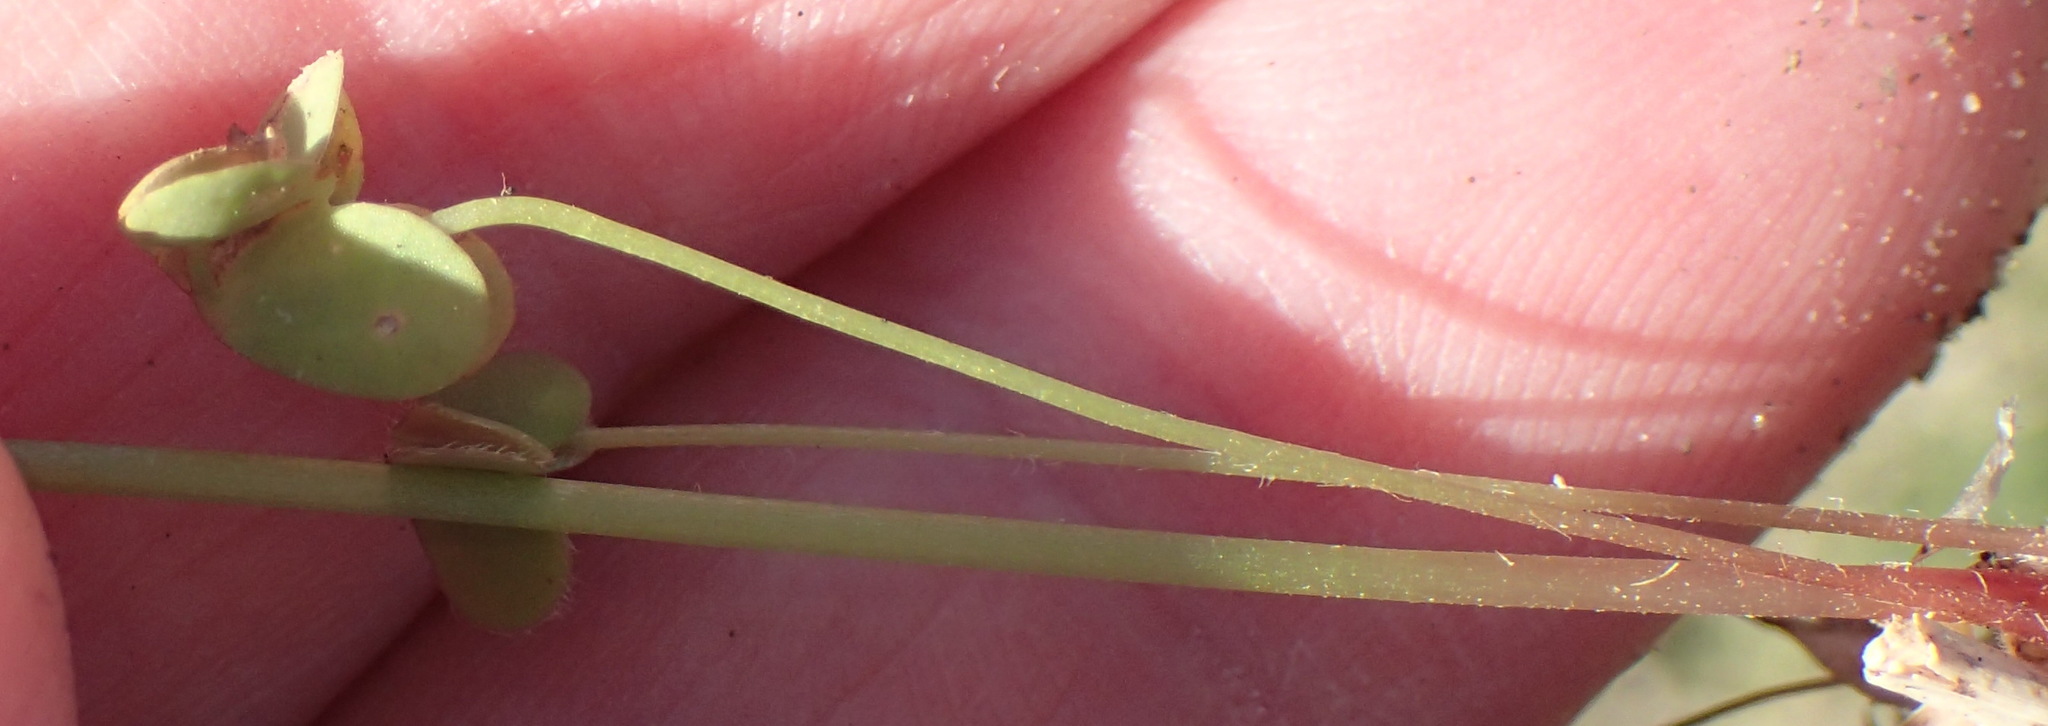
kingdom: Plantae
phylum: Tracheophyta
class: Magnoliopsida
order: Oxalidales
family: Oxalidaceae
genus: Oxalis
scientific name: Oxalis caprina
